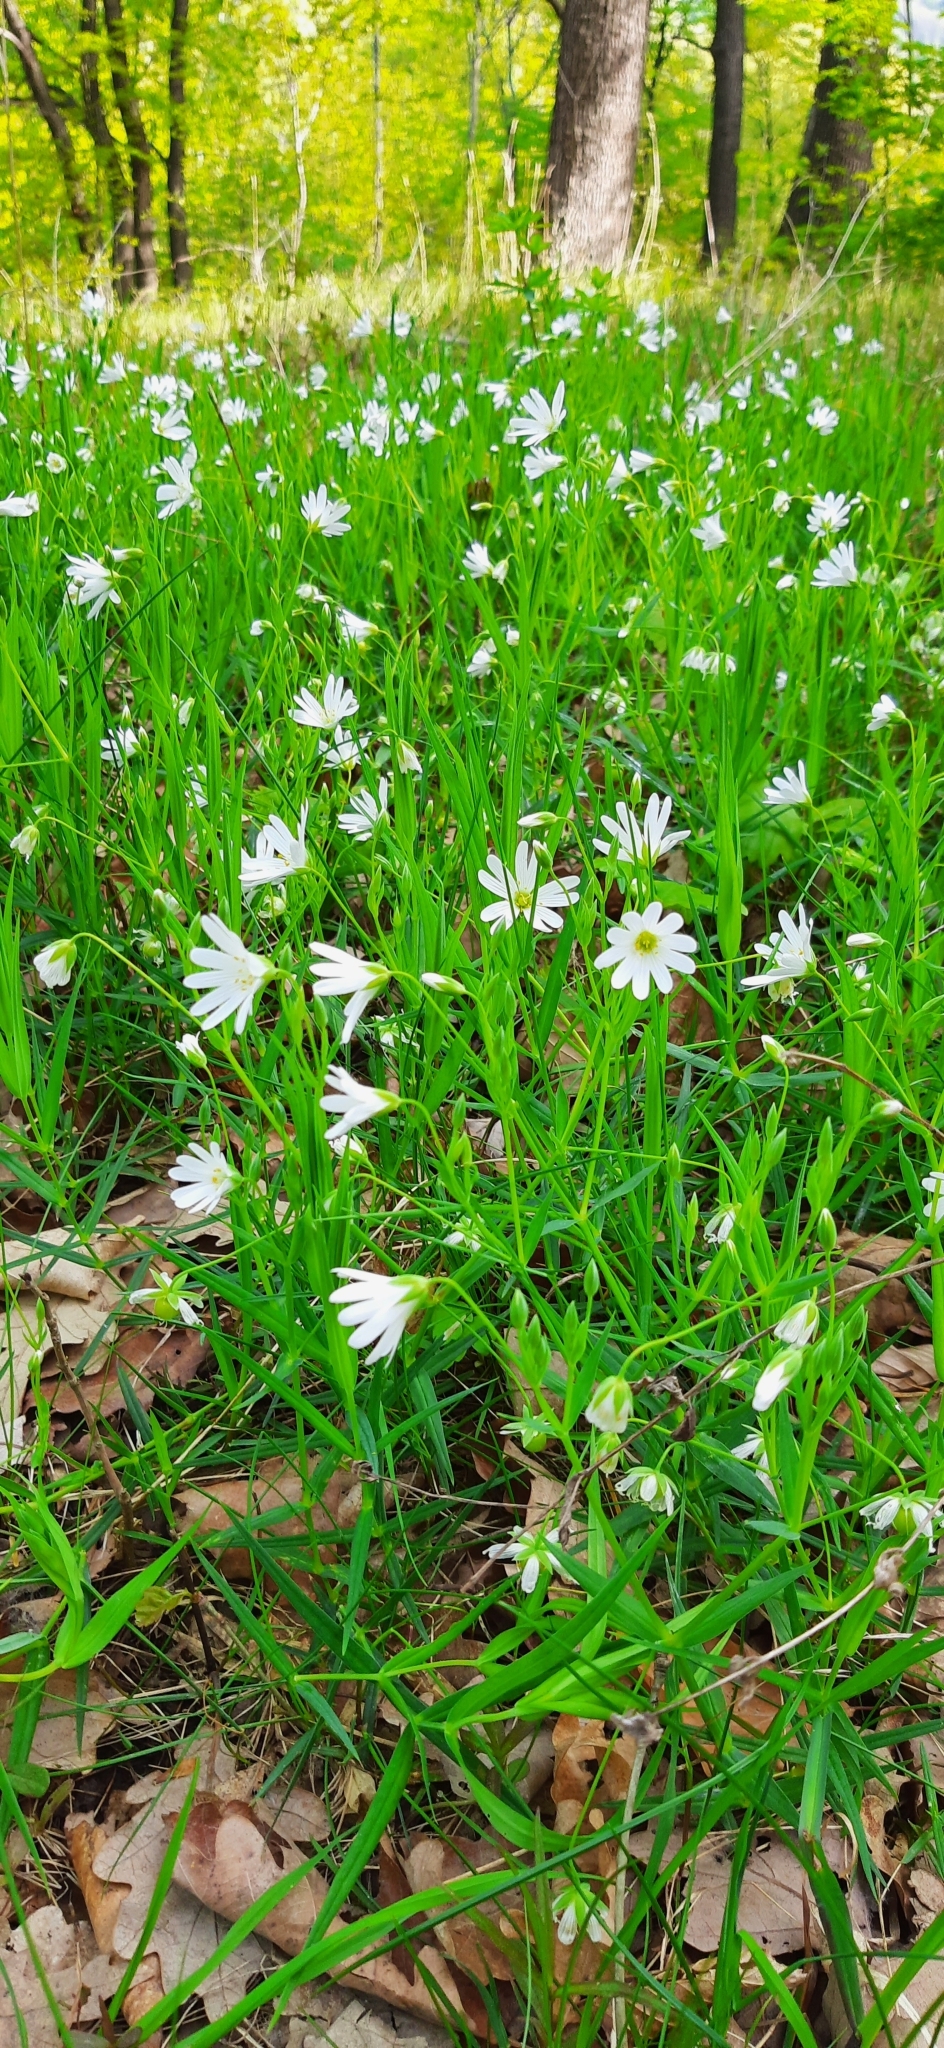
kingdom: Plantae
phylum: Tracheophyta
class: Magnoliopsida
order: Caryophyllales
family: Caryophyllaceae
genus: Rabelera
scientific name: Rabelera holostea
